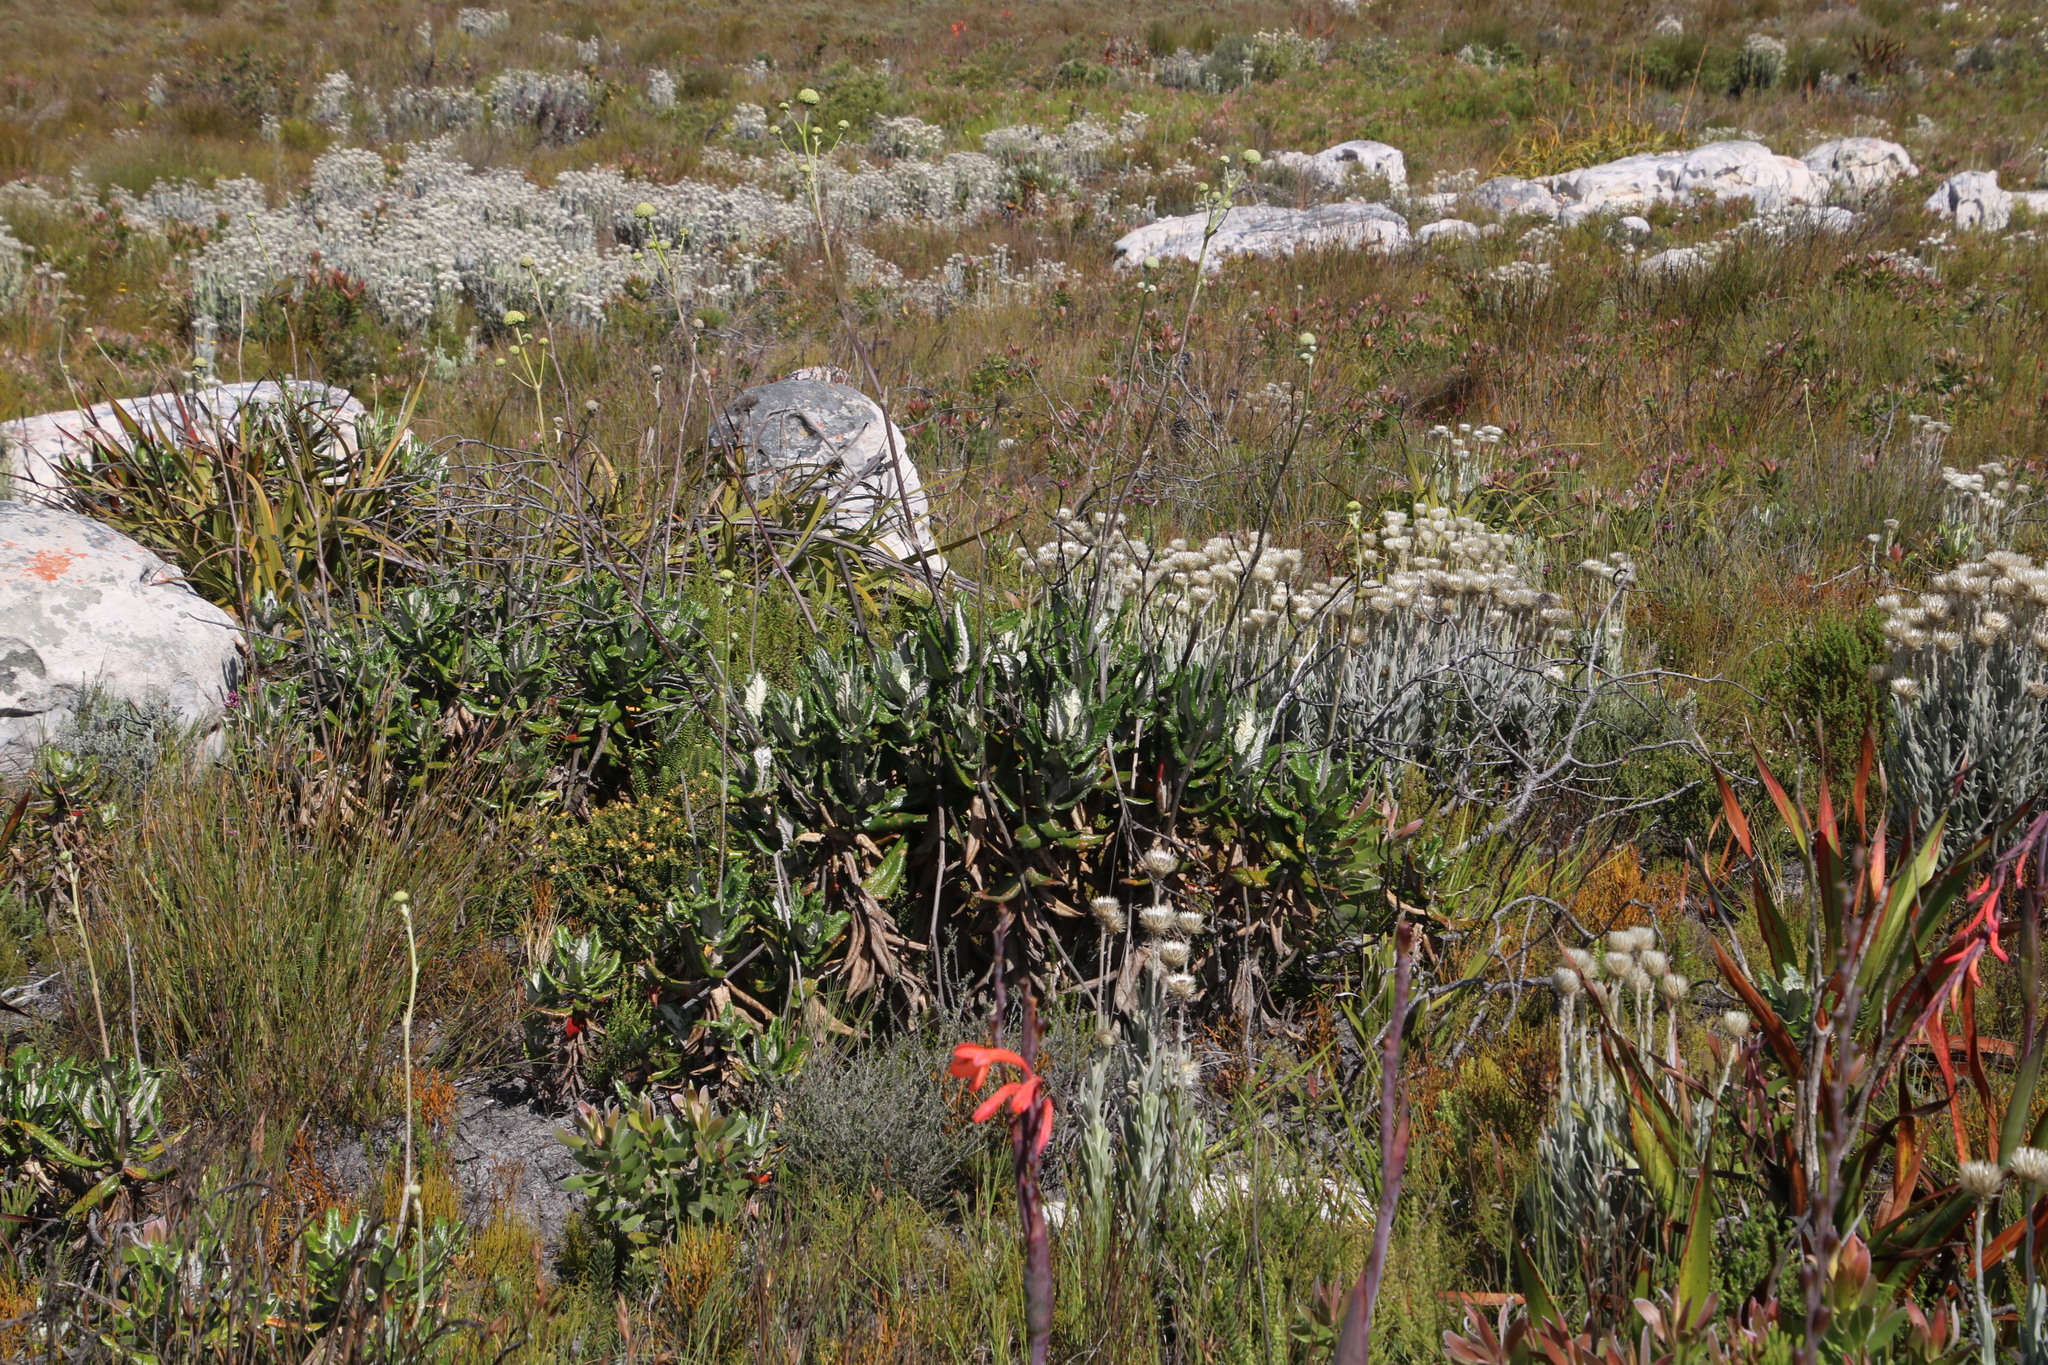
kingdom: Plantae
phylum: Tracheophyta
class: Magnoliopsida
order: Apiales
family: Apiaceae
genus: Hermas
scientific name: Hermas villosa
